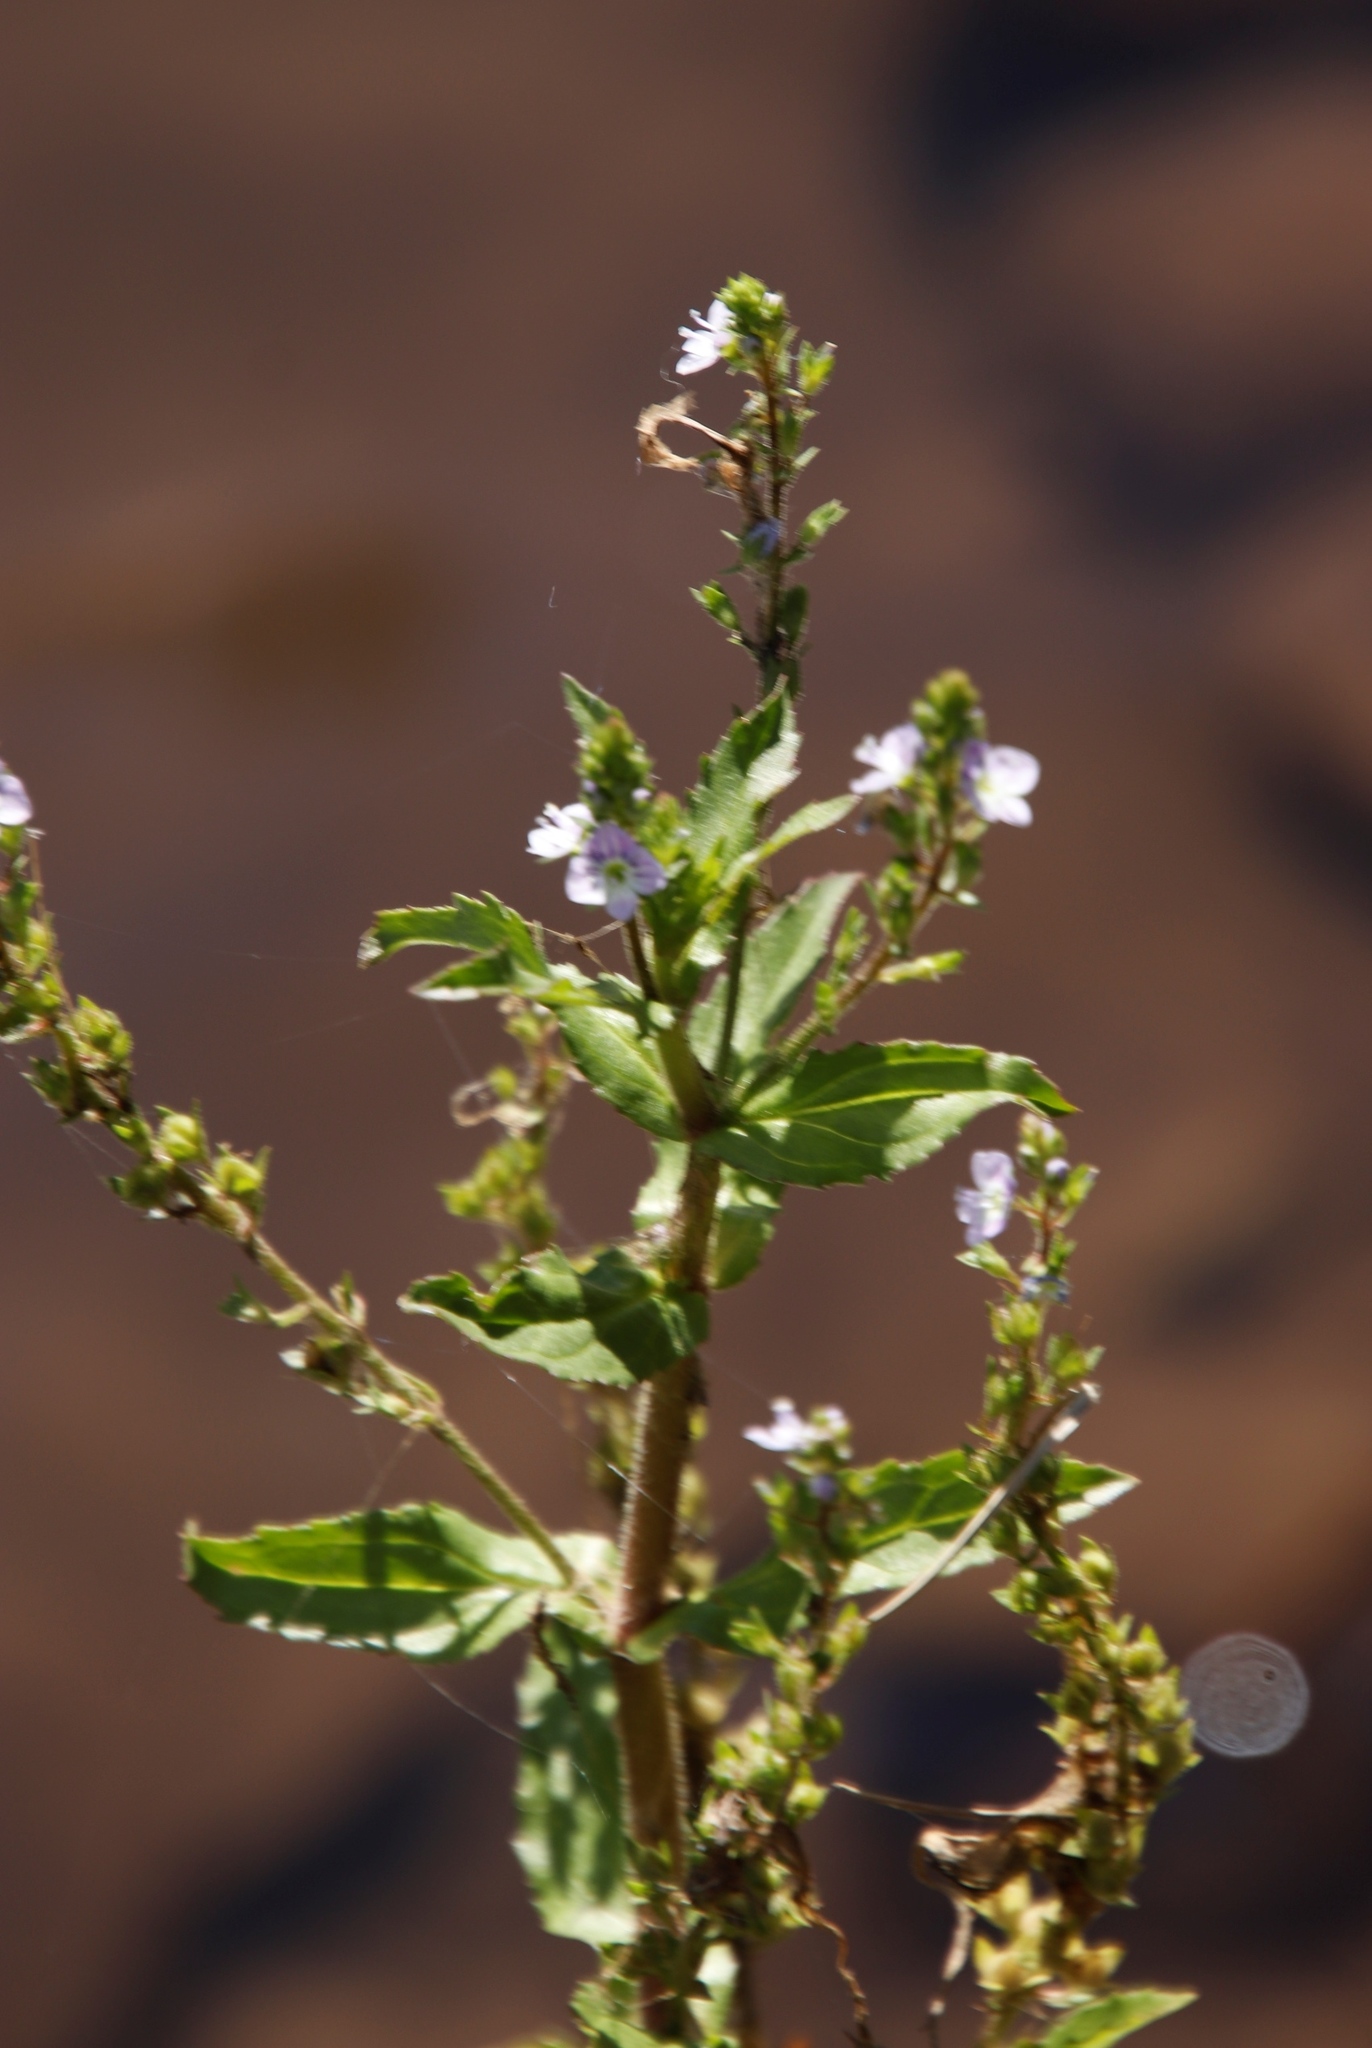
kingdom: Plantae
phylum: Tracheophyta
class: Magnoliopsida
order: Lamiales
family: Plantaginaceae
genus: Veronica
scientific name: Veronica anagallis-aquatica
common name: Water speedwell
